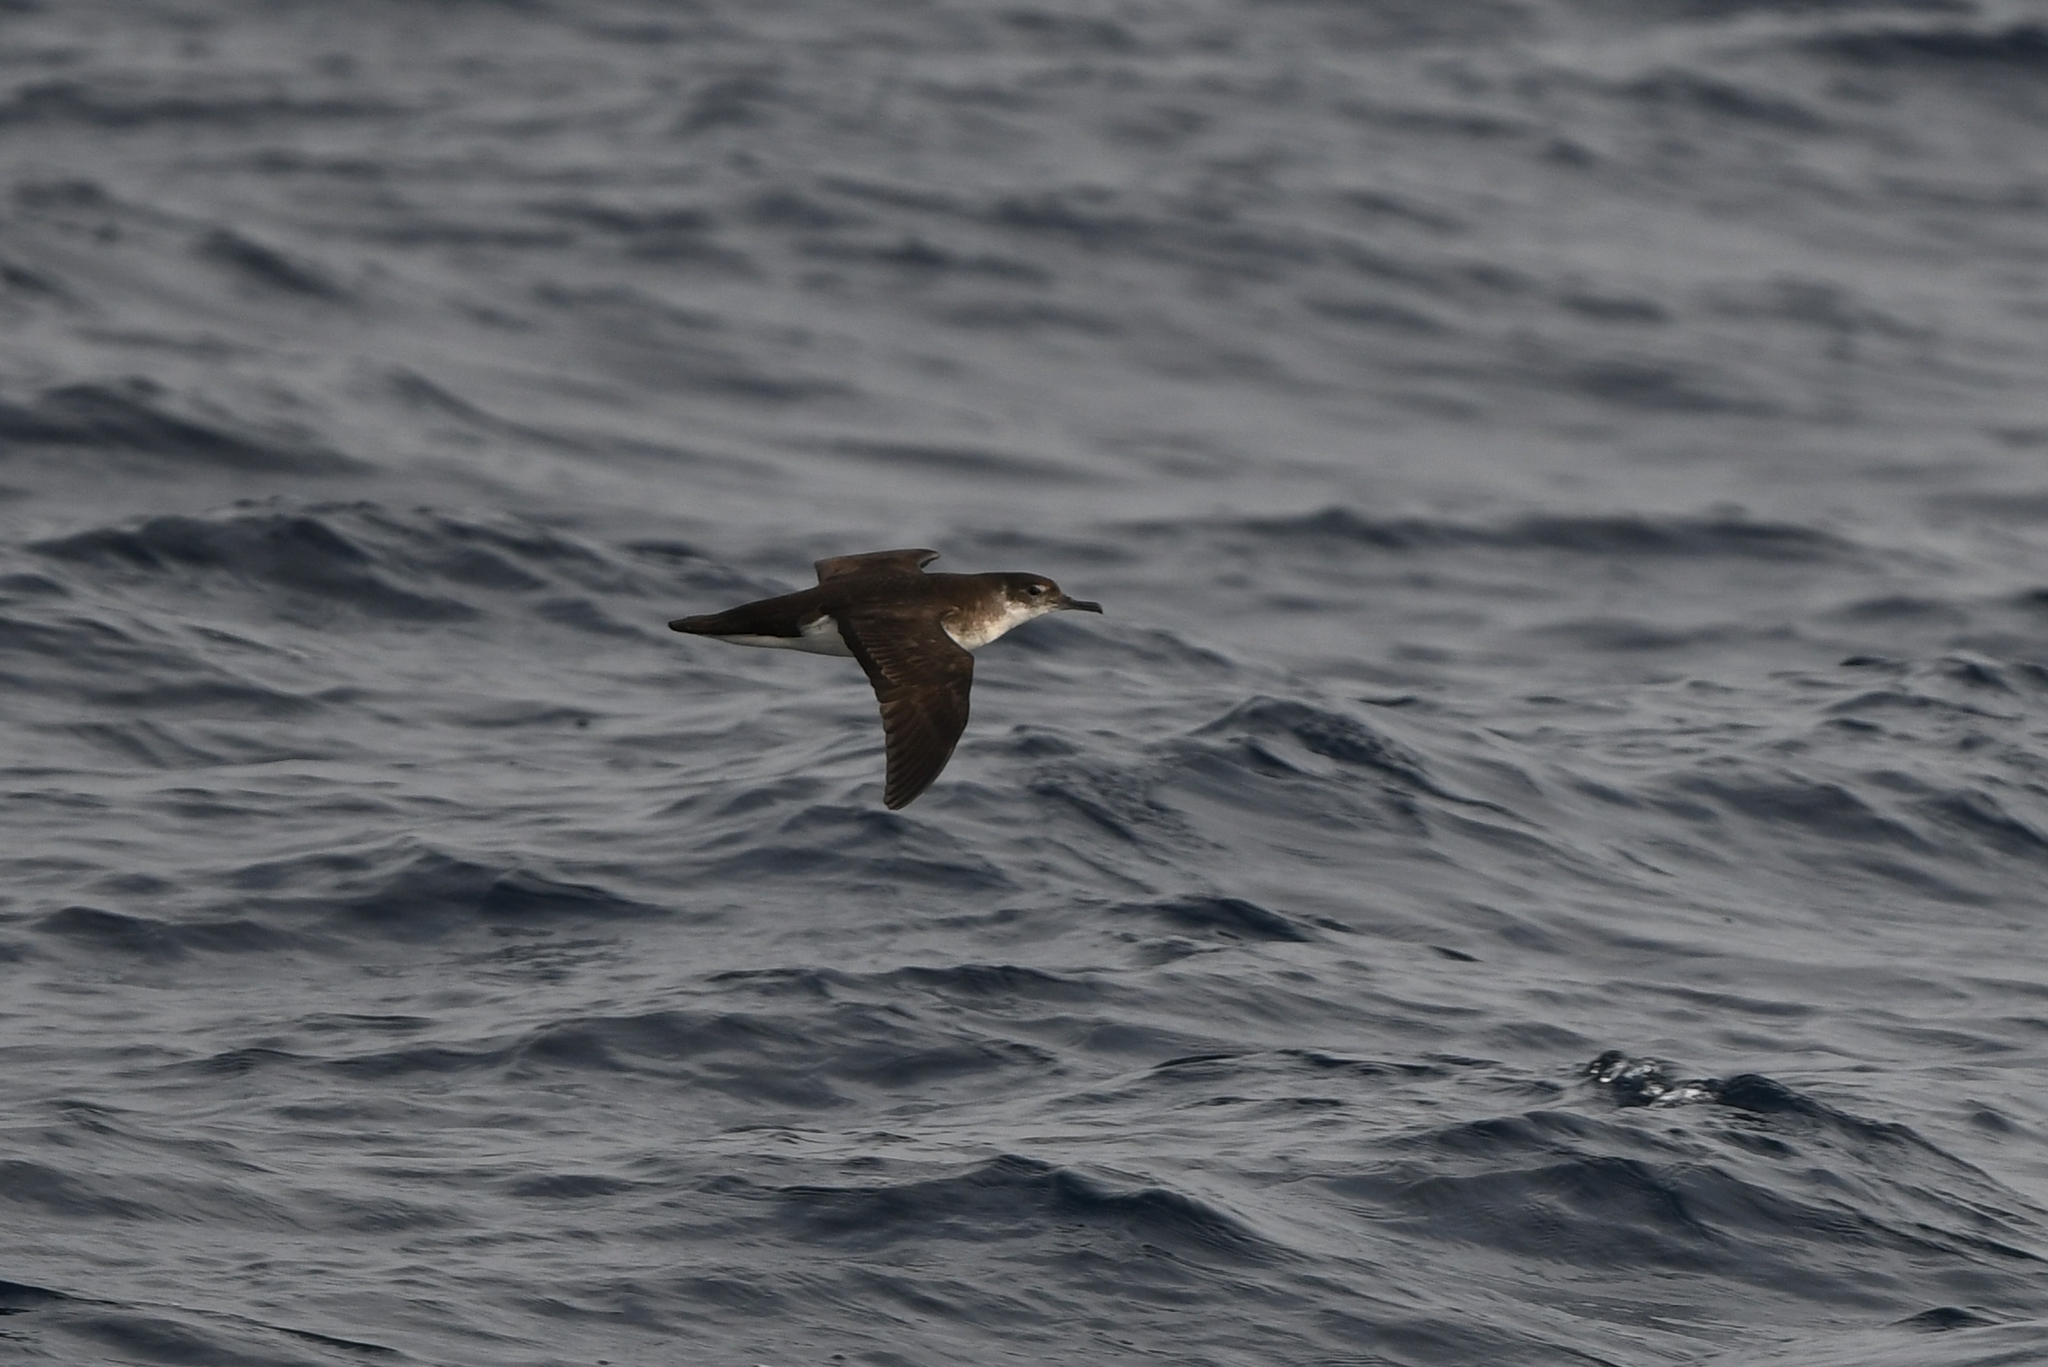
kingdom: Animalia
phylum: Chordata
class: Aves
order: Procellariiformes
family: Procellariidae
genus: Puffinus
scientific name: Puffinus puffinus
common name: Manx shearwater
